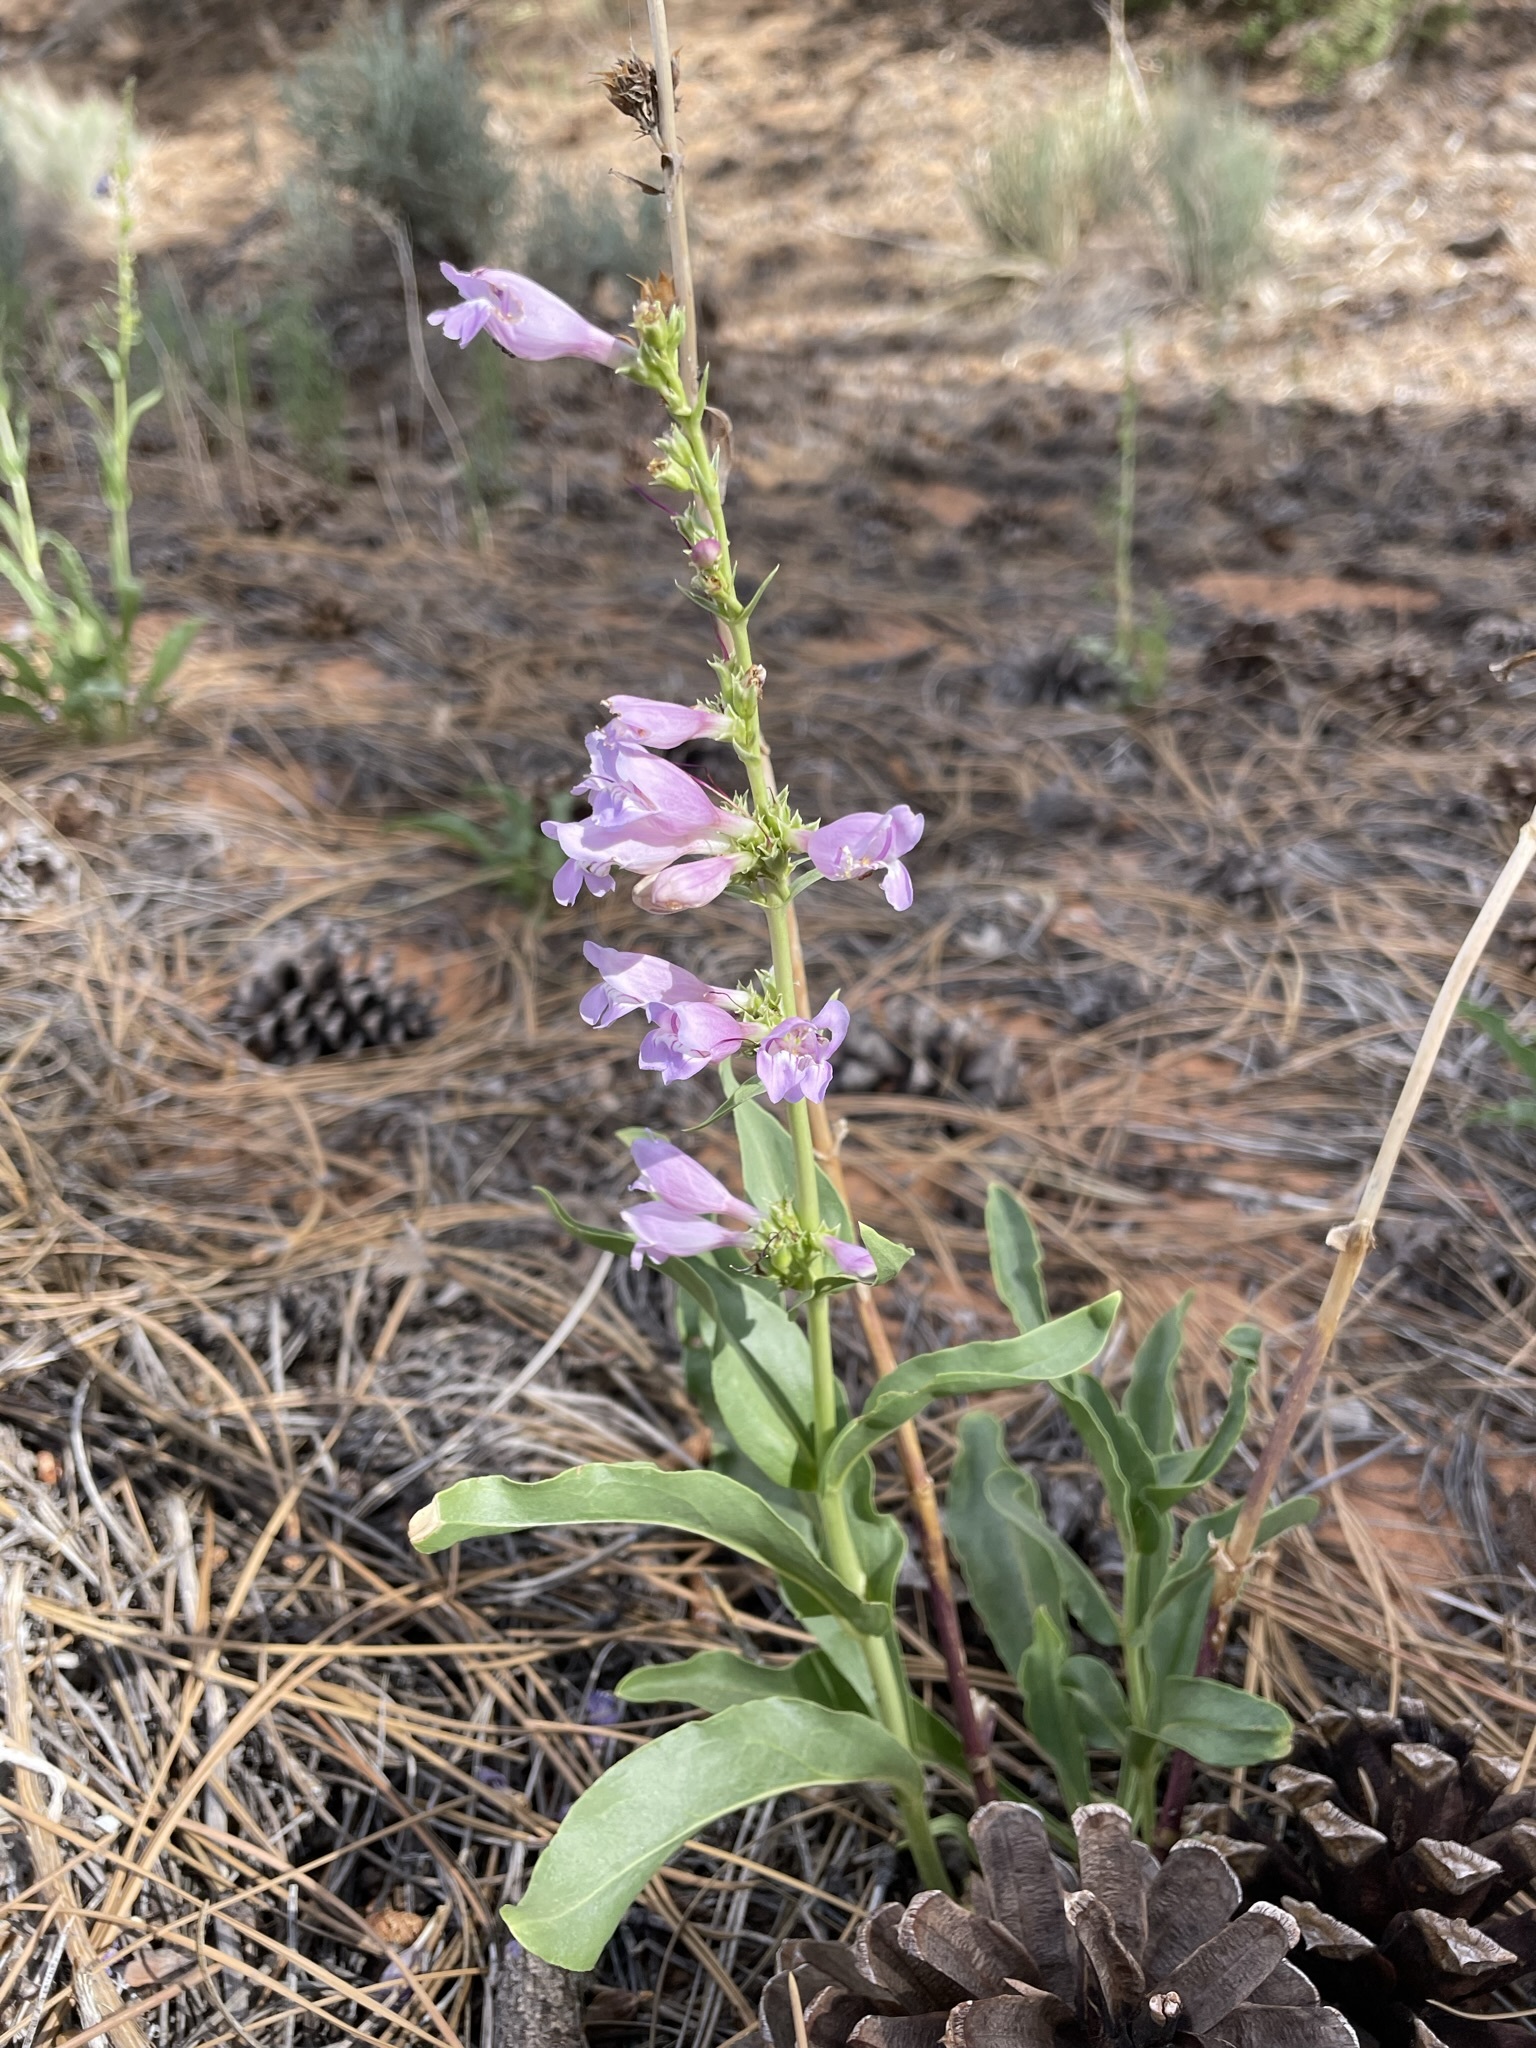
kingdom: Plantae
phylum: Tracheophyta
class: Magnoliopsida
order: Lamiales
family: Plantaginaceae
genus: Penstemon
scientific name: Penstemon laevis
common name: Smooth penstemon
